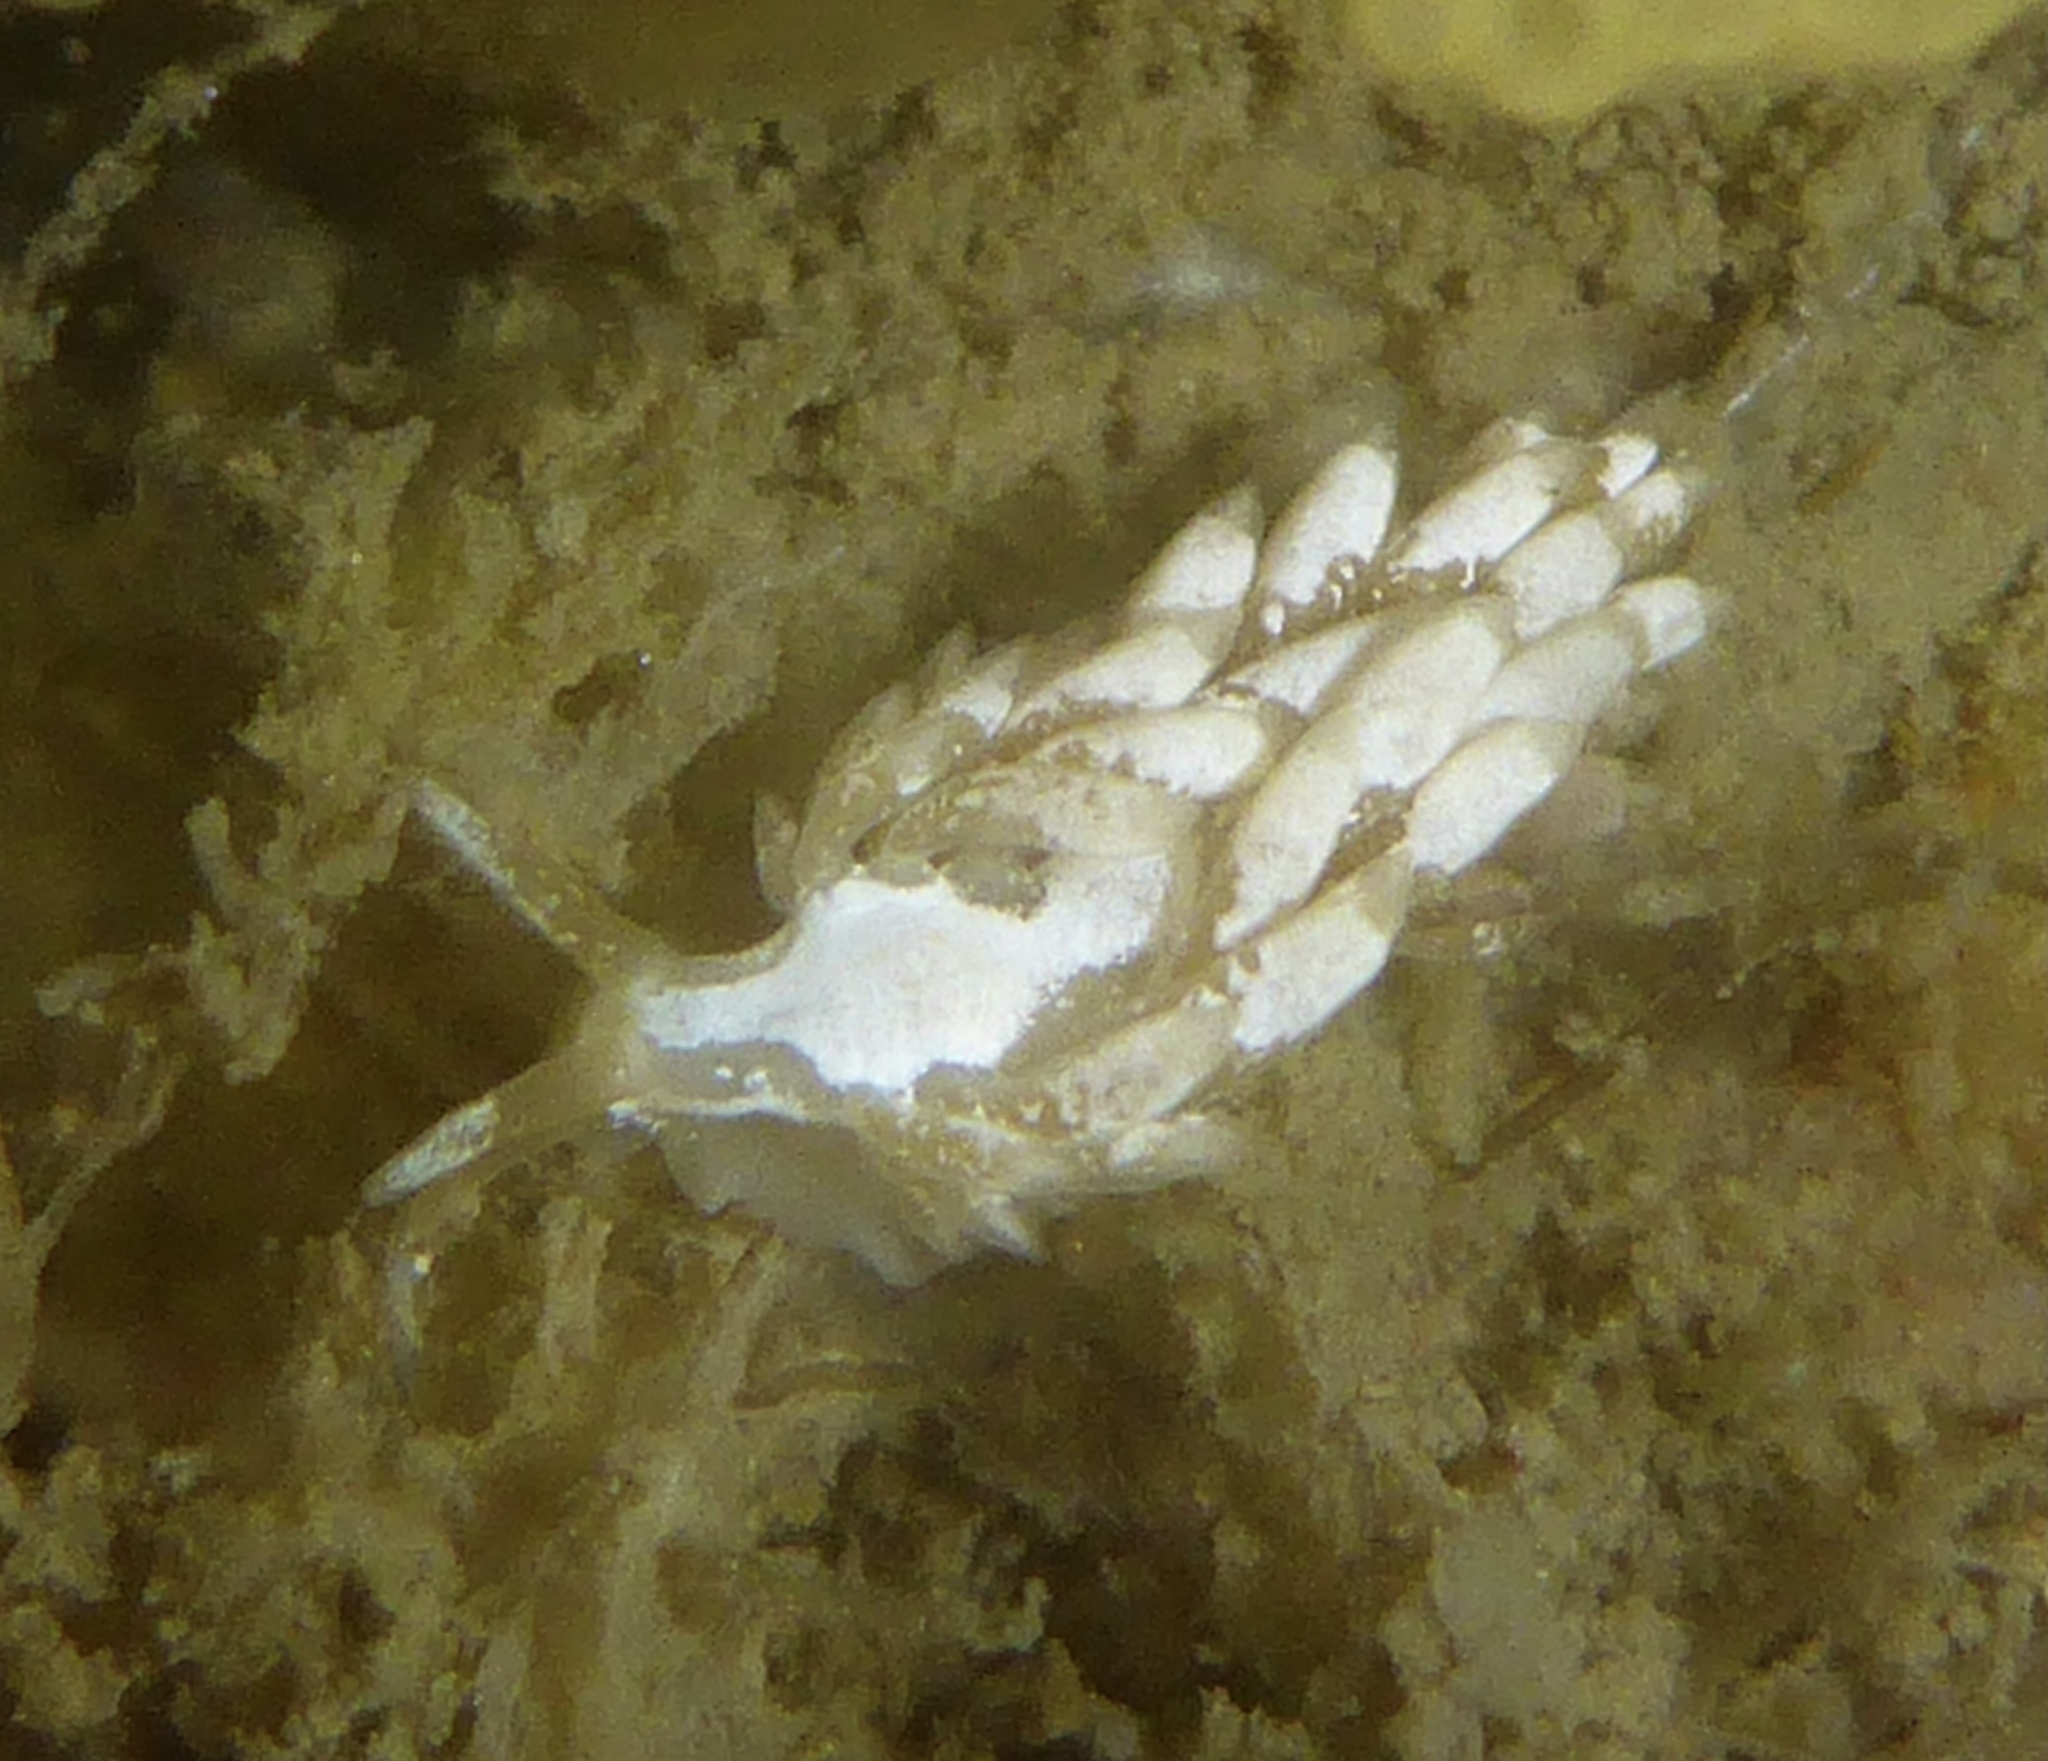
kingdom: Animalia
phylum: Mollusca
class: Gastropoda
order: Nudibranchia
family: Trinchesiidae
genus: Trinchesia
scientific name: Trinchesia albocrusta
